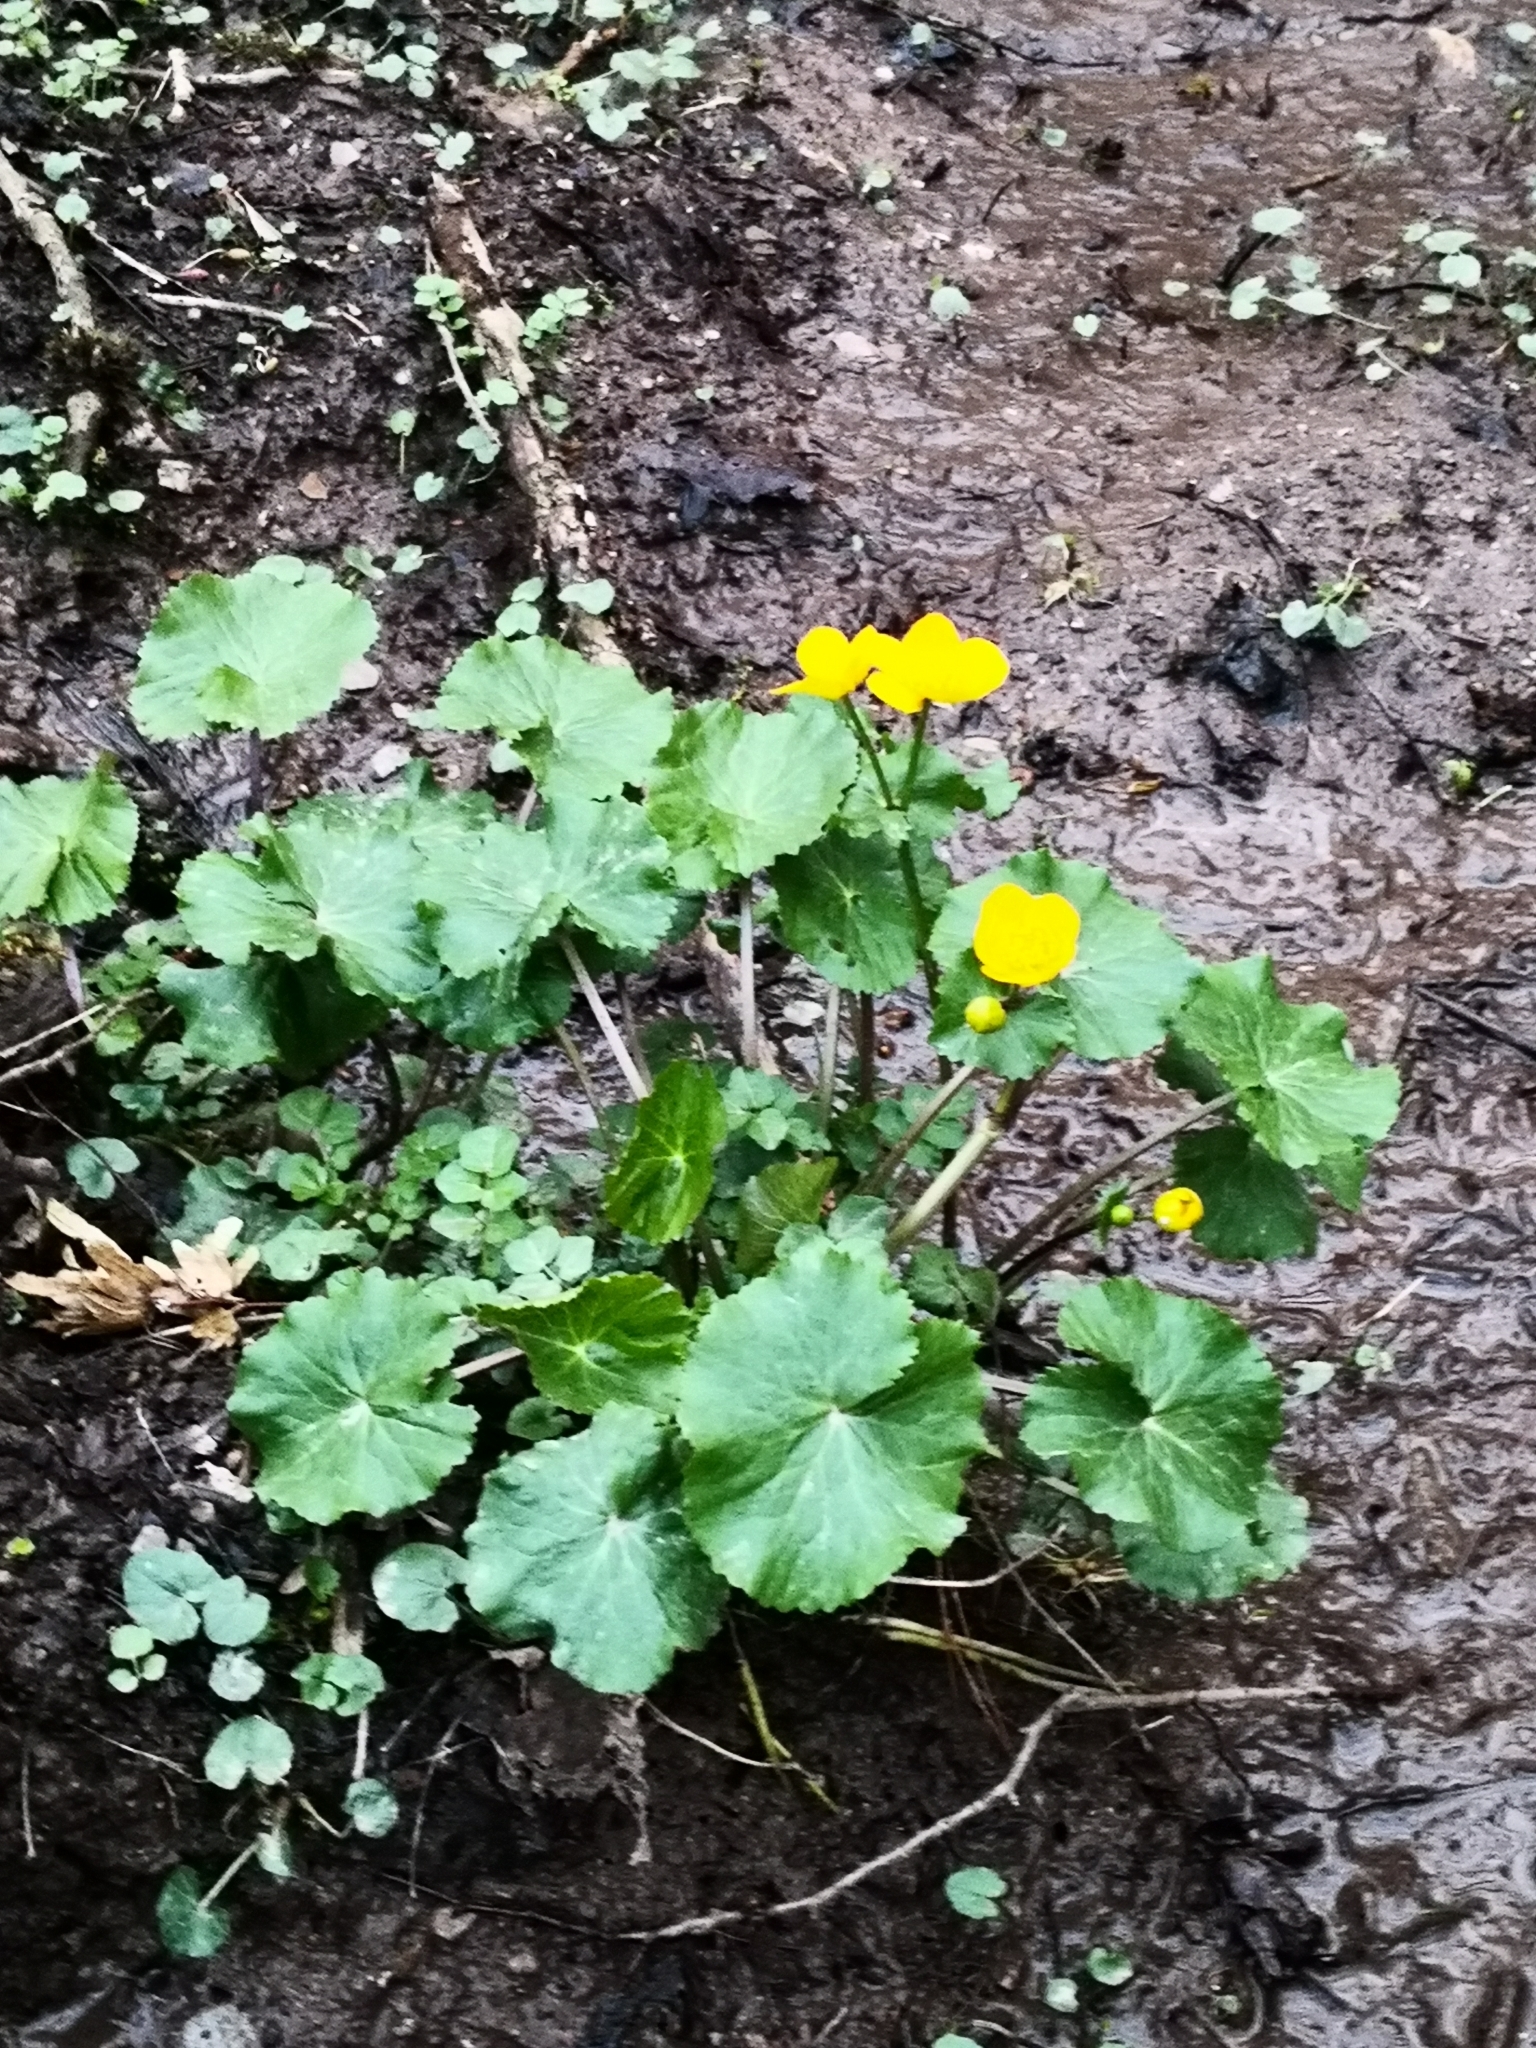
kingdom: Plantae
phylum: Tracheophyta
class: Magnoliopsida
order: Ranunculales
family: Ranunculaceae
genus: Caltha
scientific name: Caltha palustris
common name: Marsh marigold
